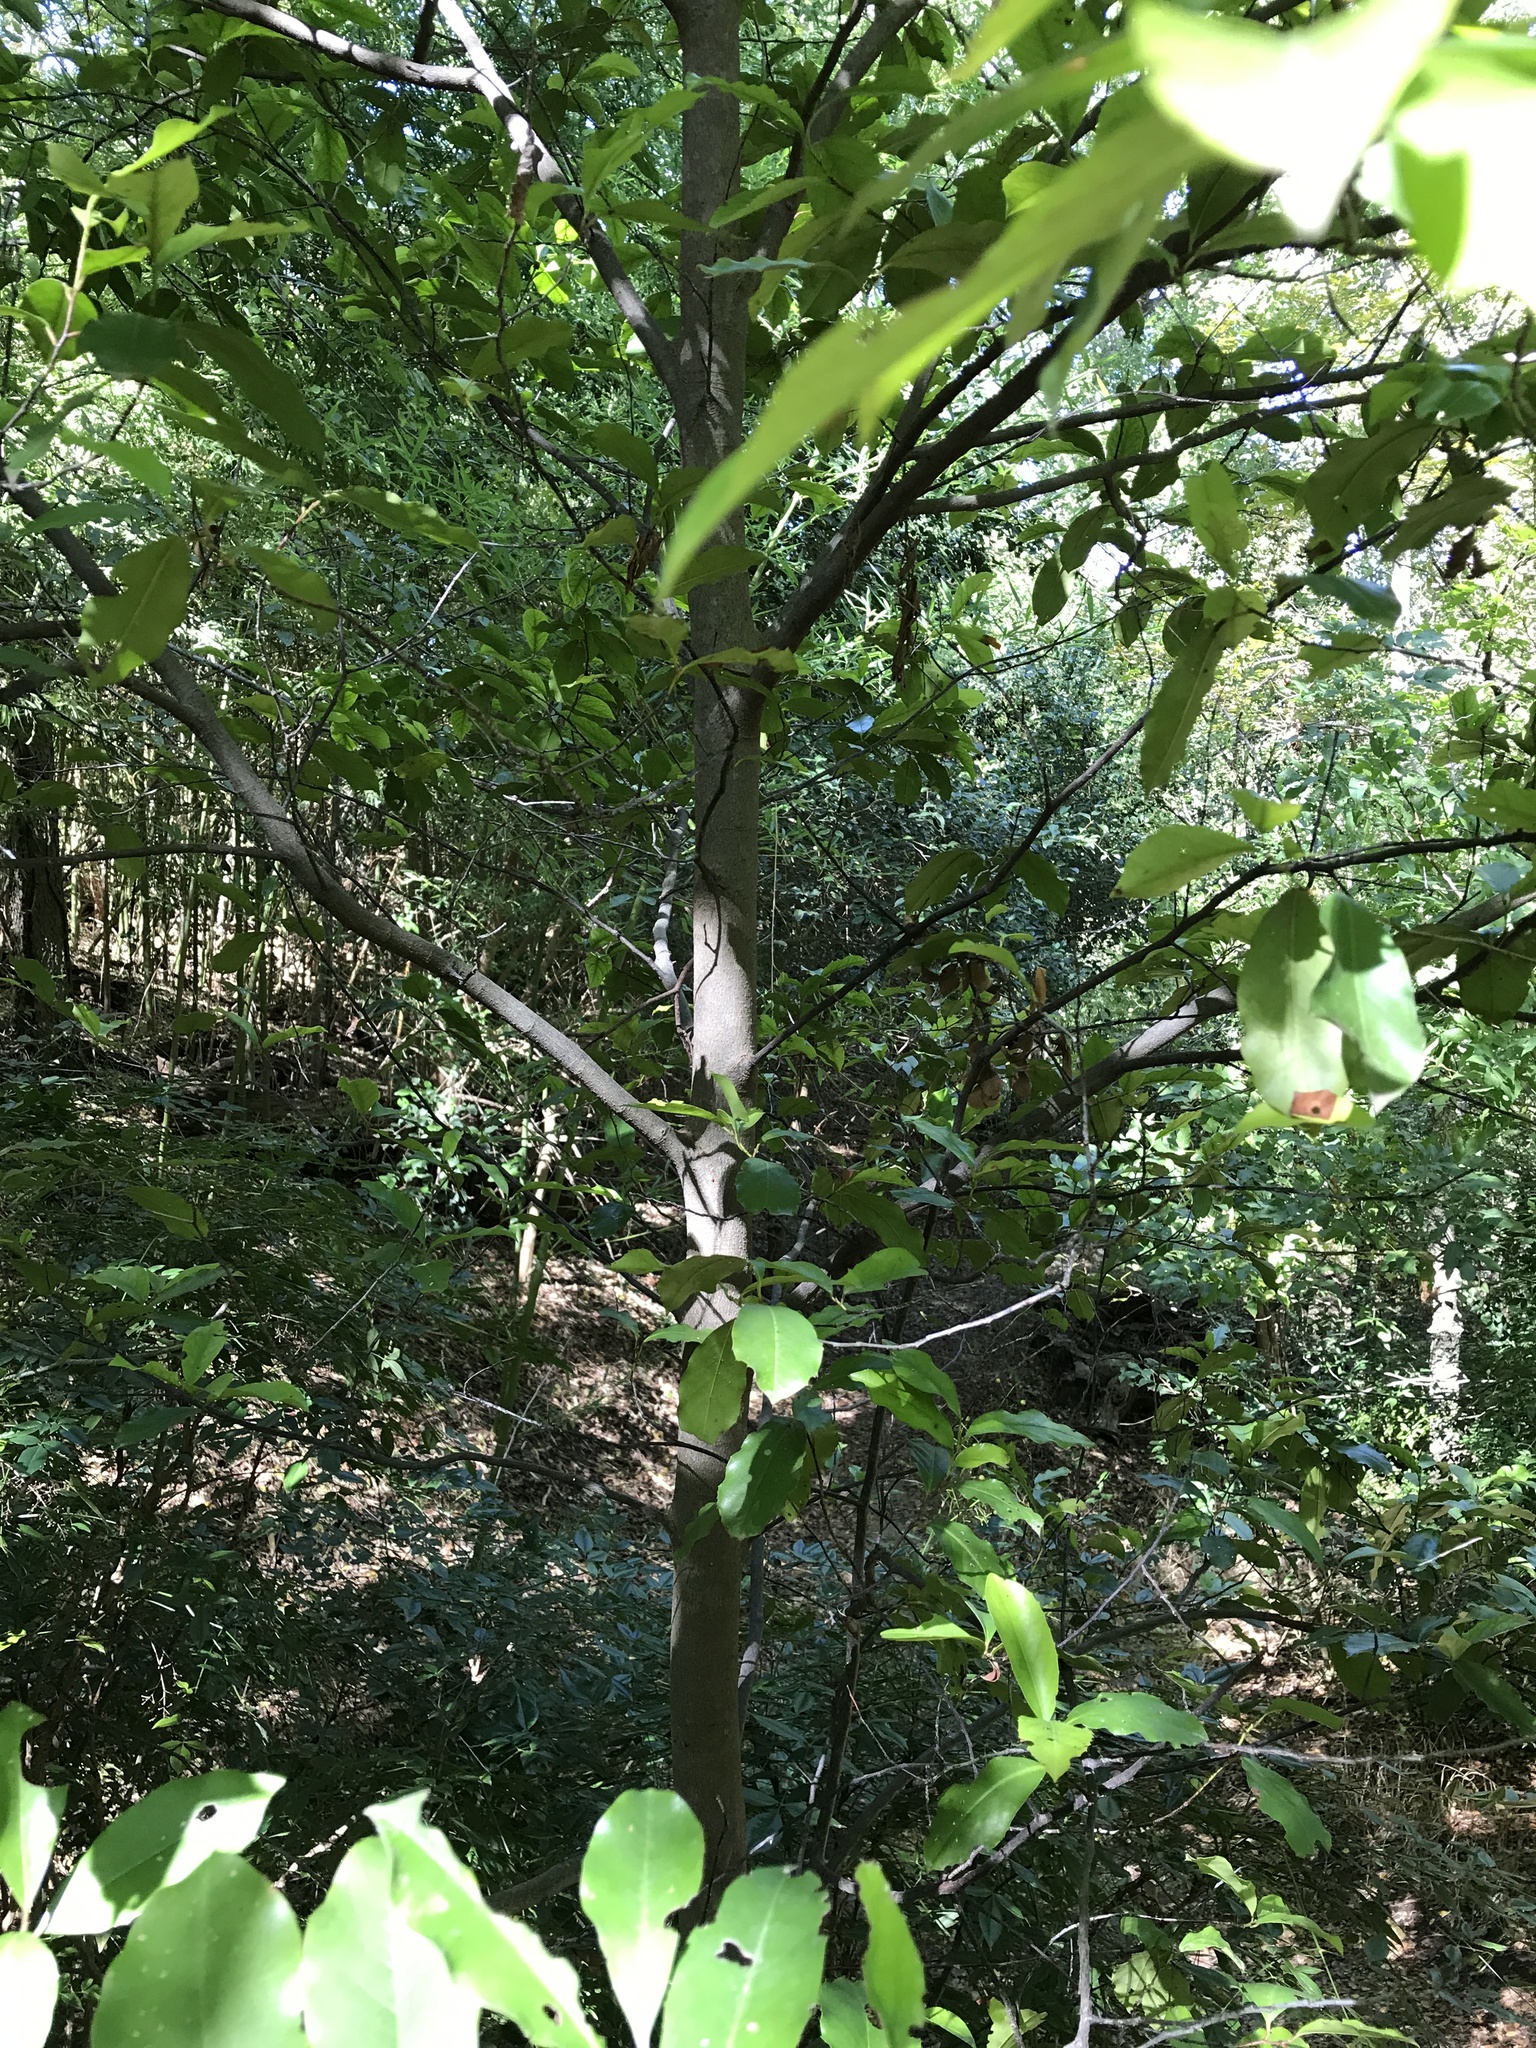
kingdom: Plantae
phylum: Tracheophyta
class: Magnoliopsida
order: Rosales
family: Rosaceae
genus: Prunus
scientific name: Prunus caroliniana
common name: Carolina laurel cherry
